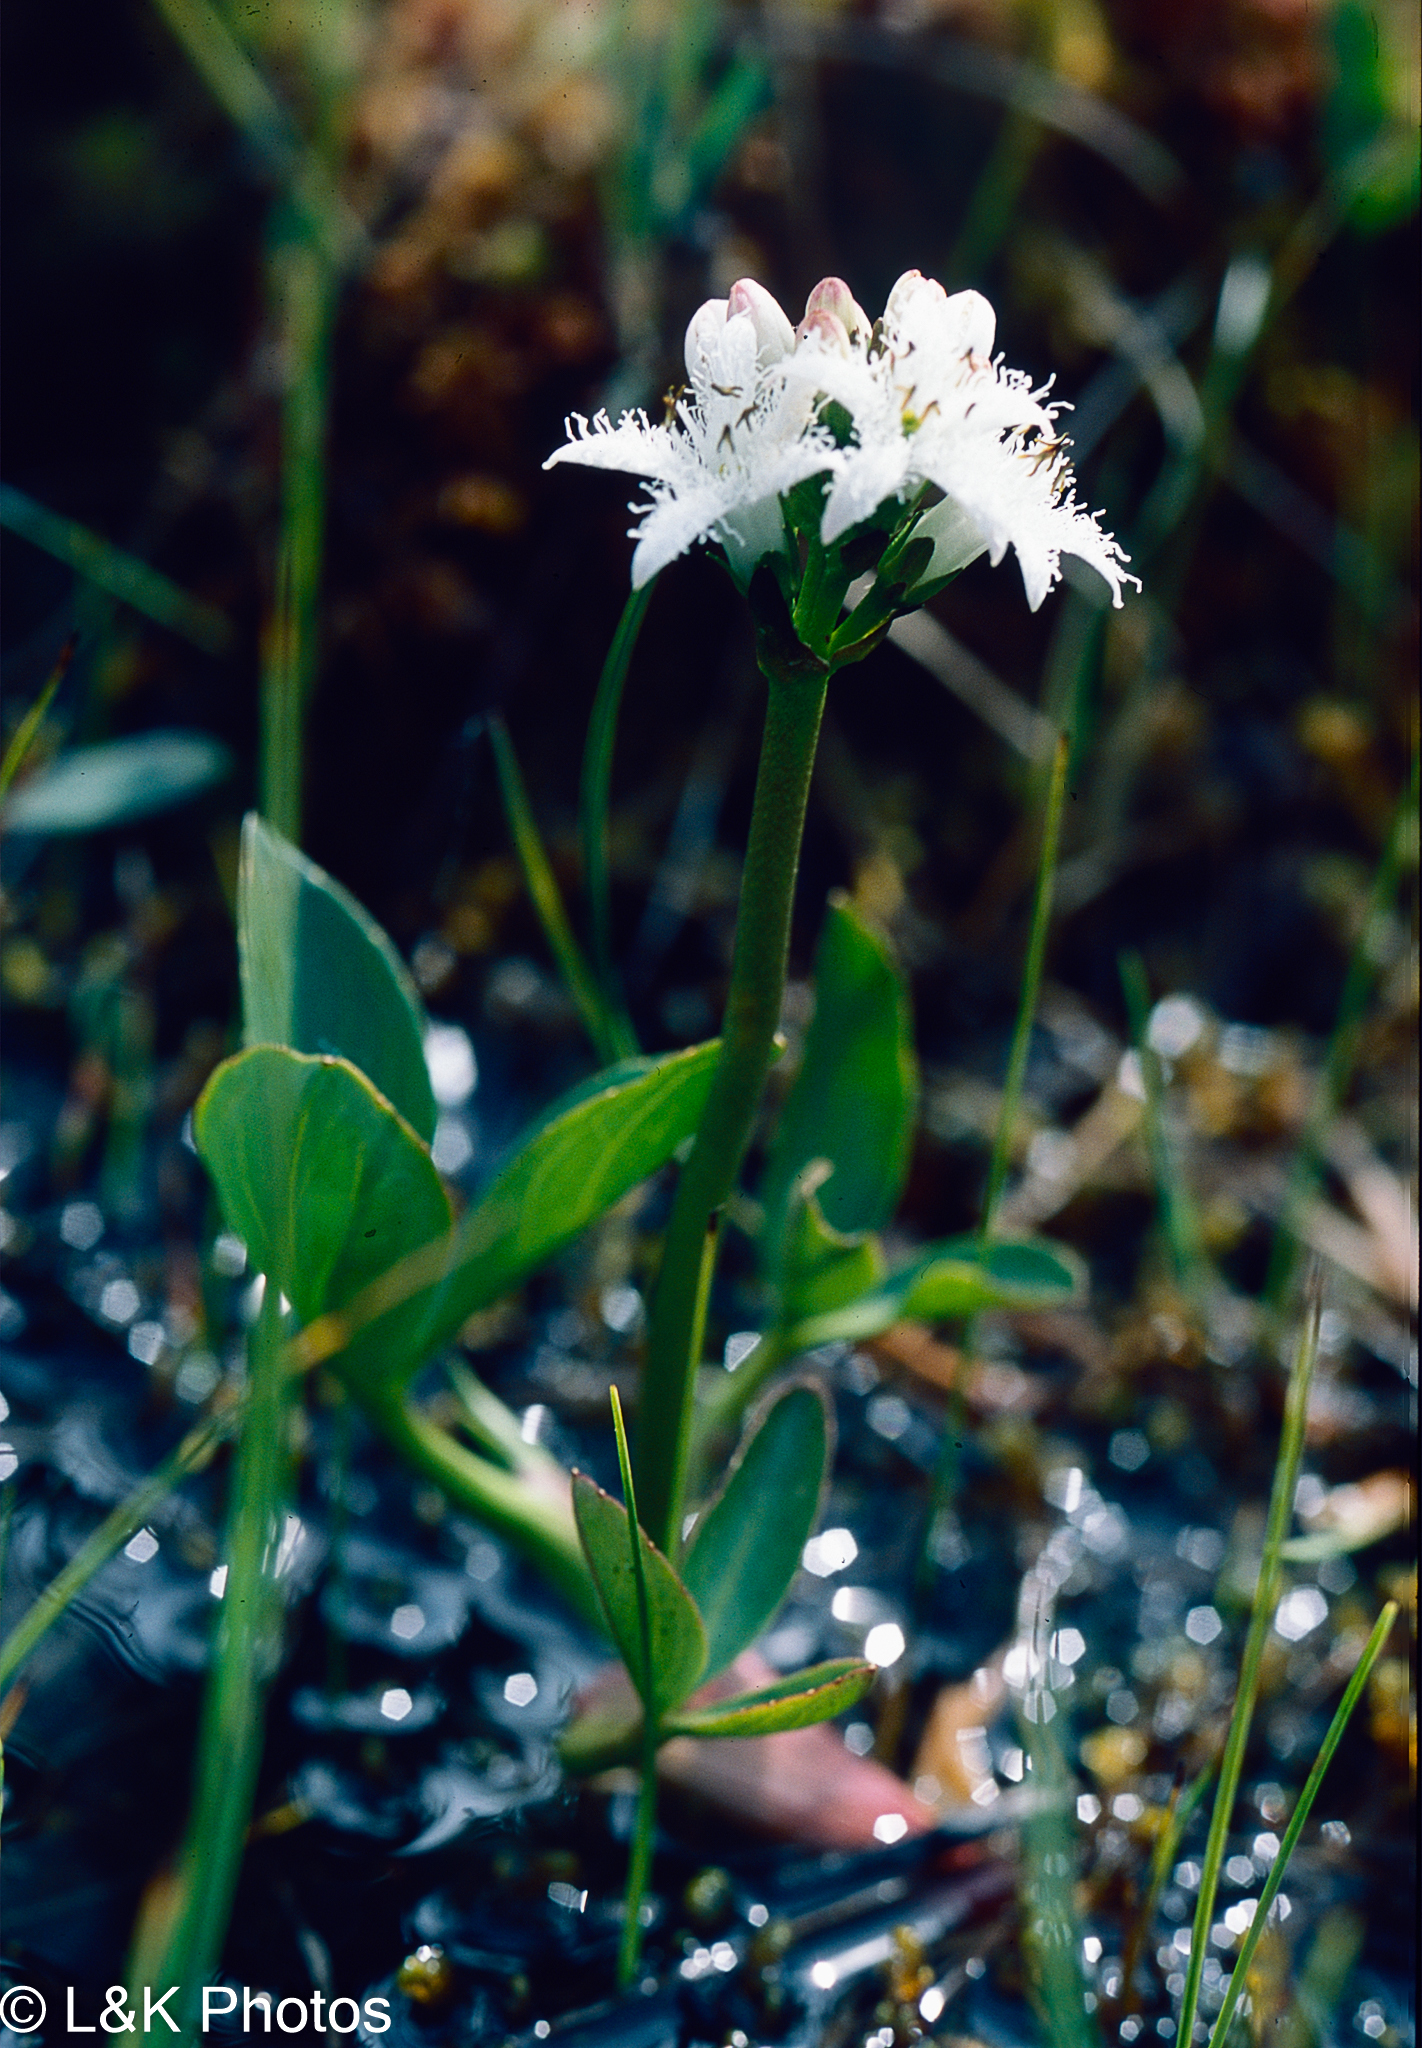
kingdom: Plantae
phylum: Tracheophyta
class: Magnoliopsida
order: Asterales
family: Menyanthaceae
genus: Menyanthes
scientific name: Menyanthes trifoliata
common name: Bogbean
